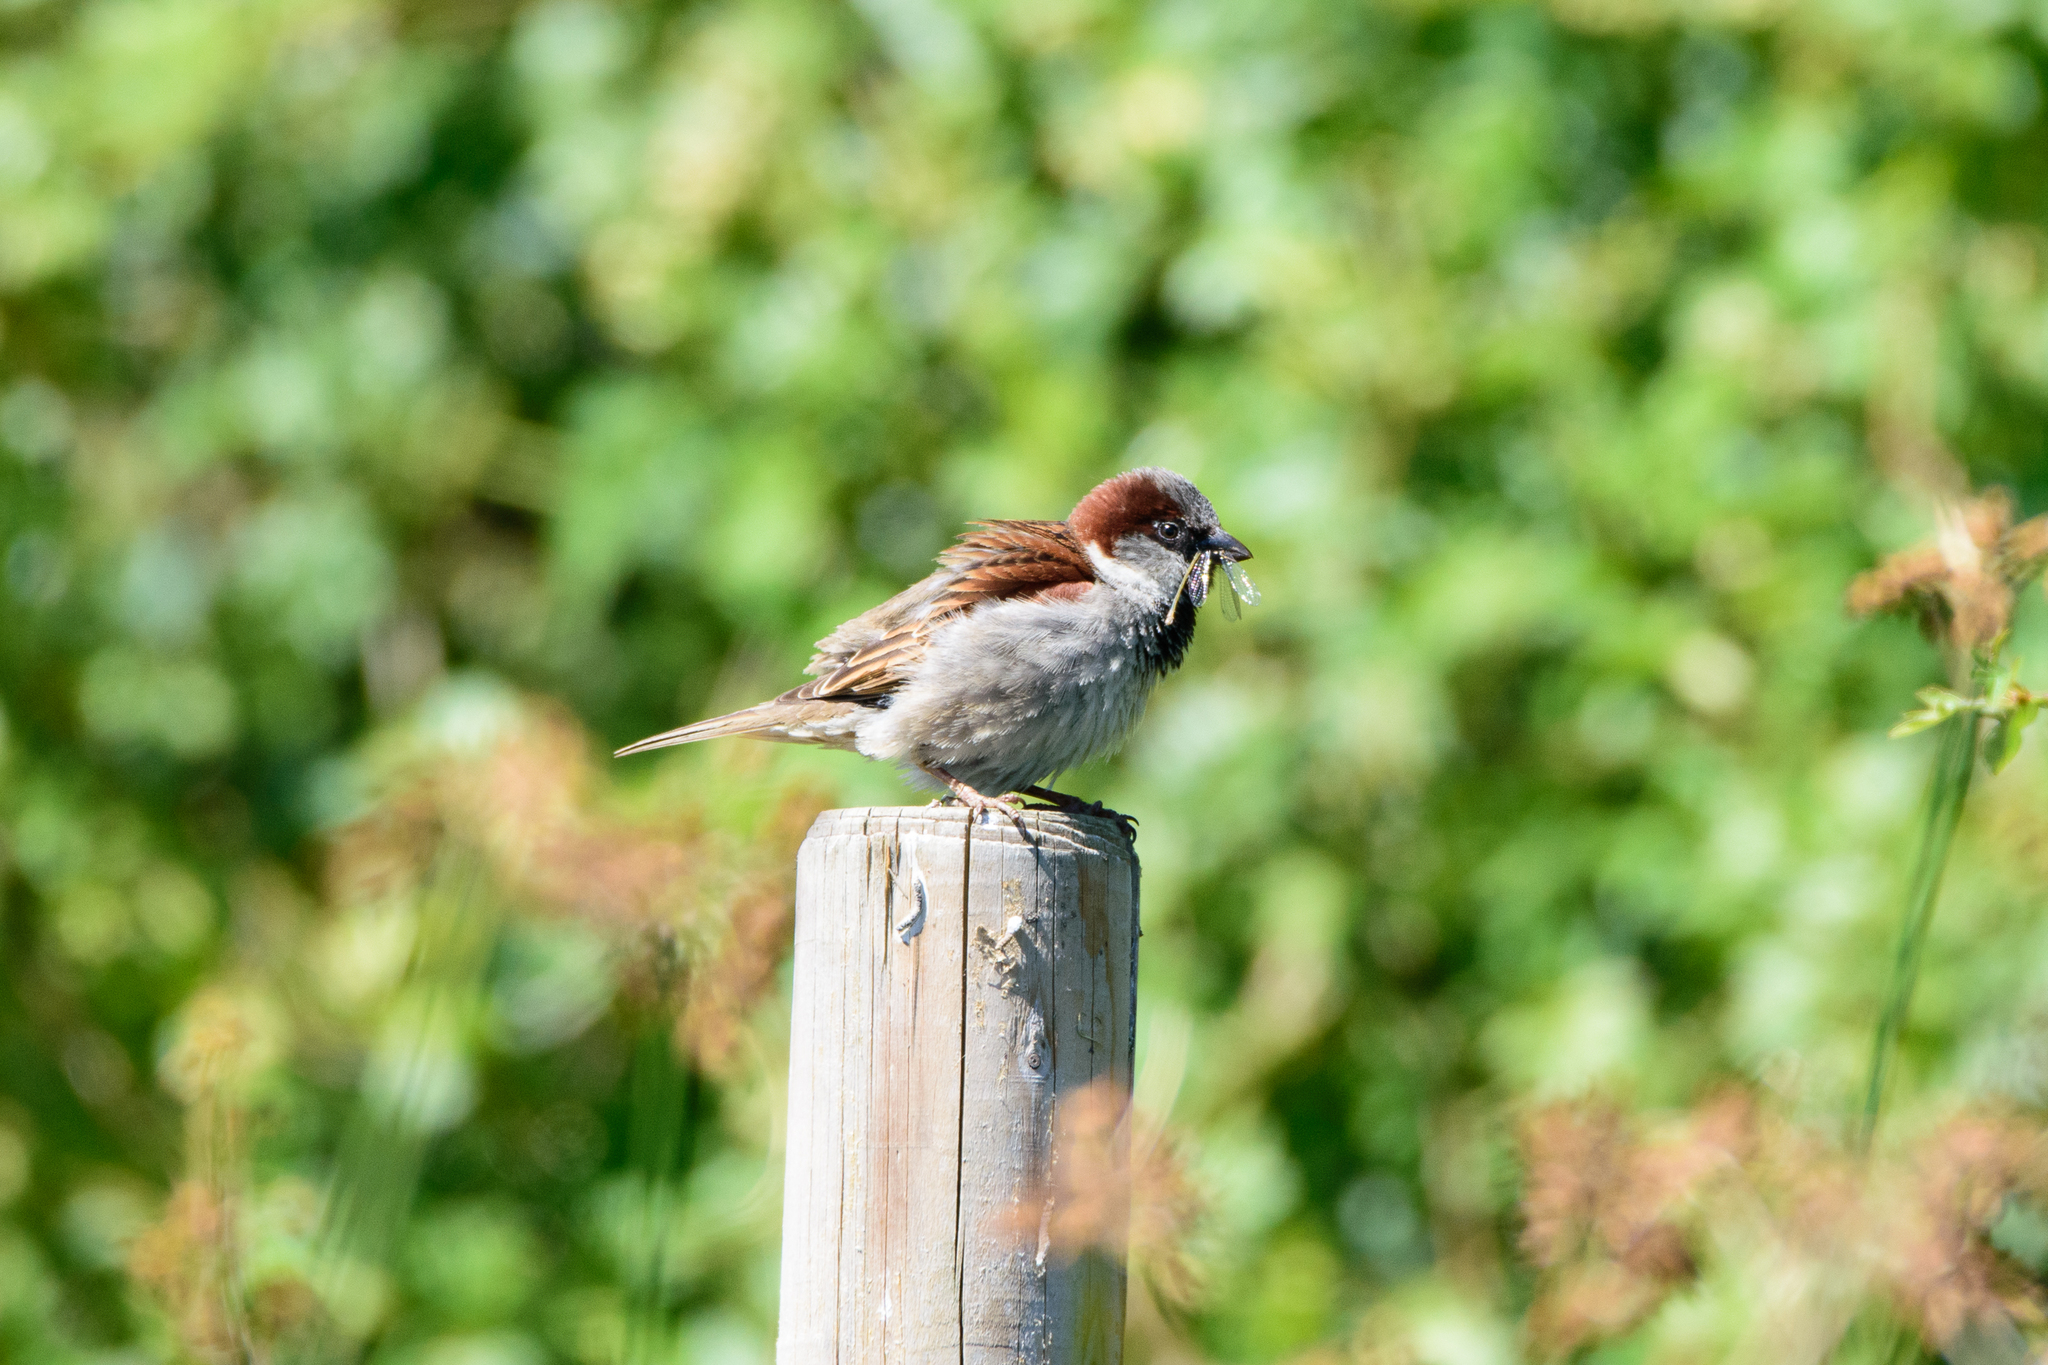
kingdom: Animalia
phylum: Chordata
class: Aves
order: Passeriformes
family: Passeridae
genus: Passer
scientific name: Passer domesticus
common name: House sparrow
